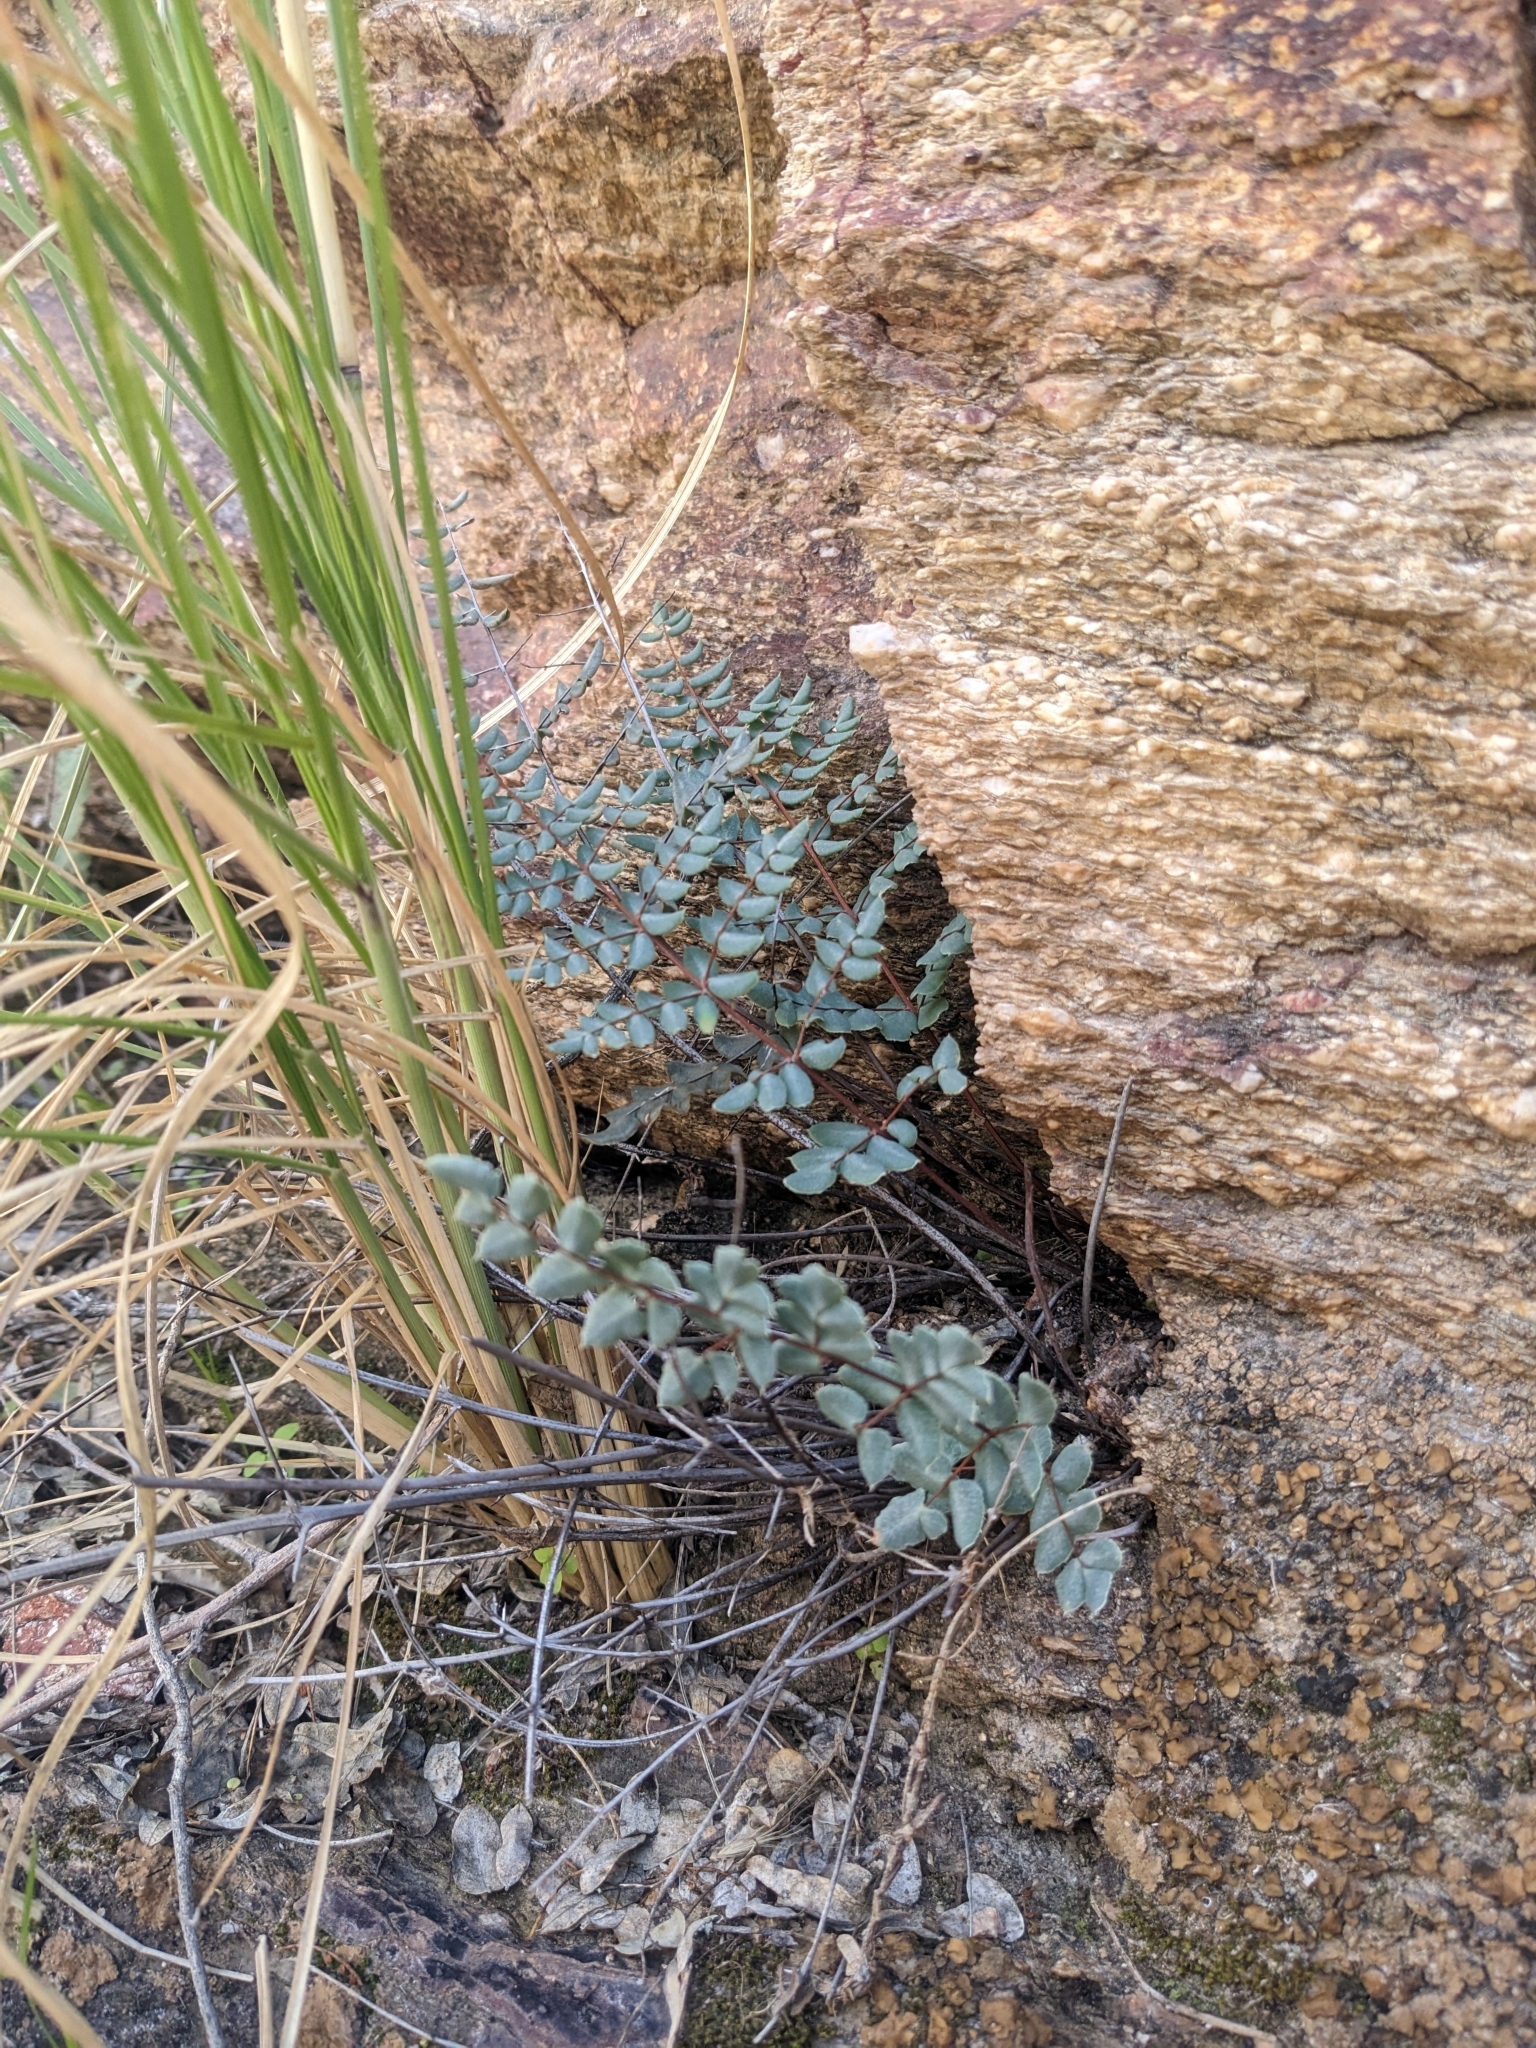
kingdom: Plantae
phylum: Tracheophyta
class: Polypodiopsida
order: Polypodiales
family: Pteridaceae
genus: Pellaea
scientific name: Pellaea truncata
